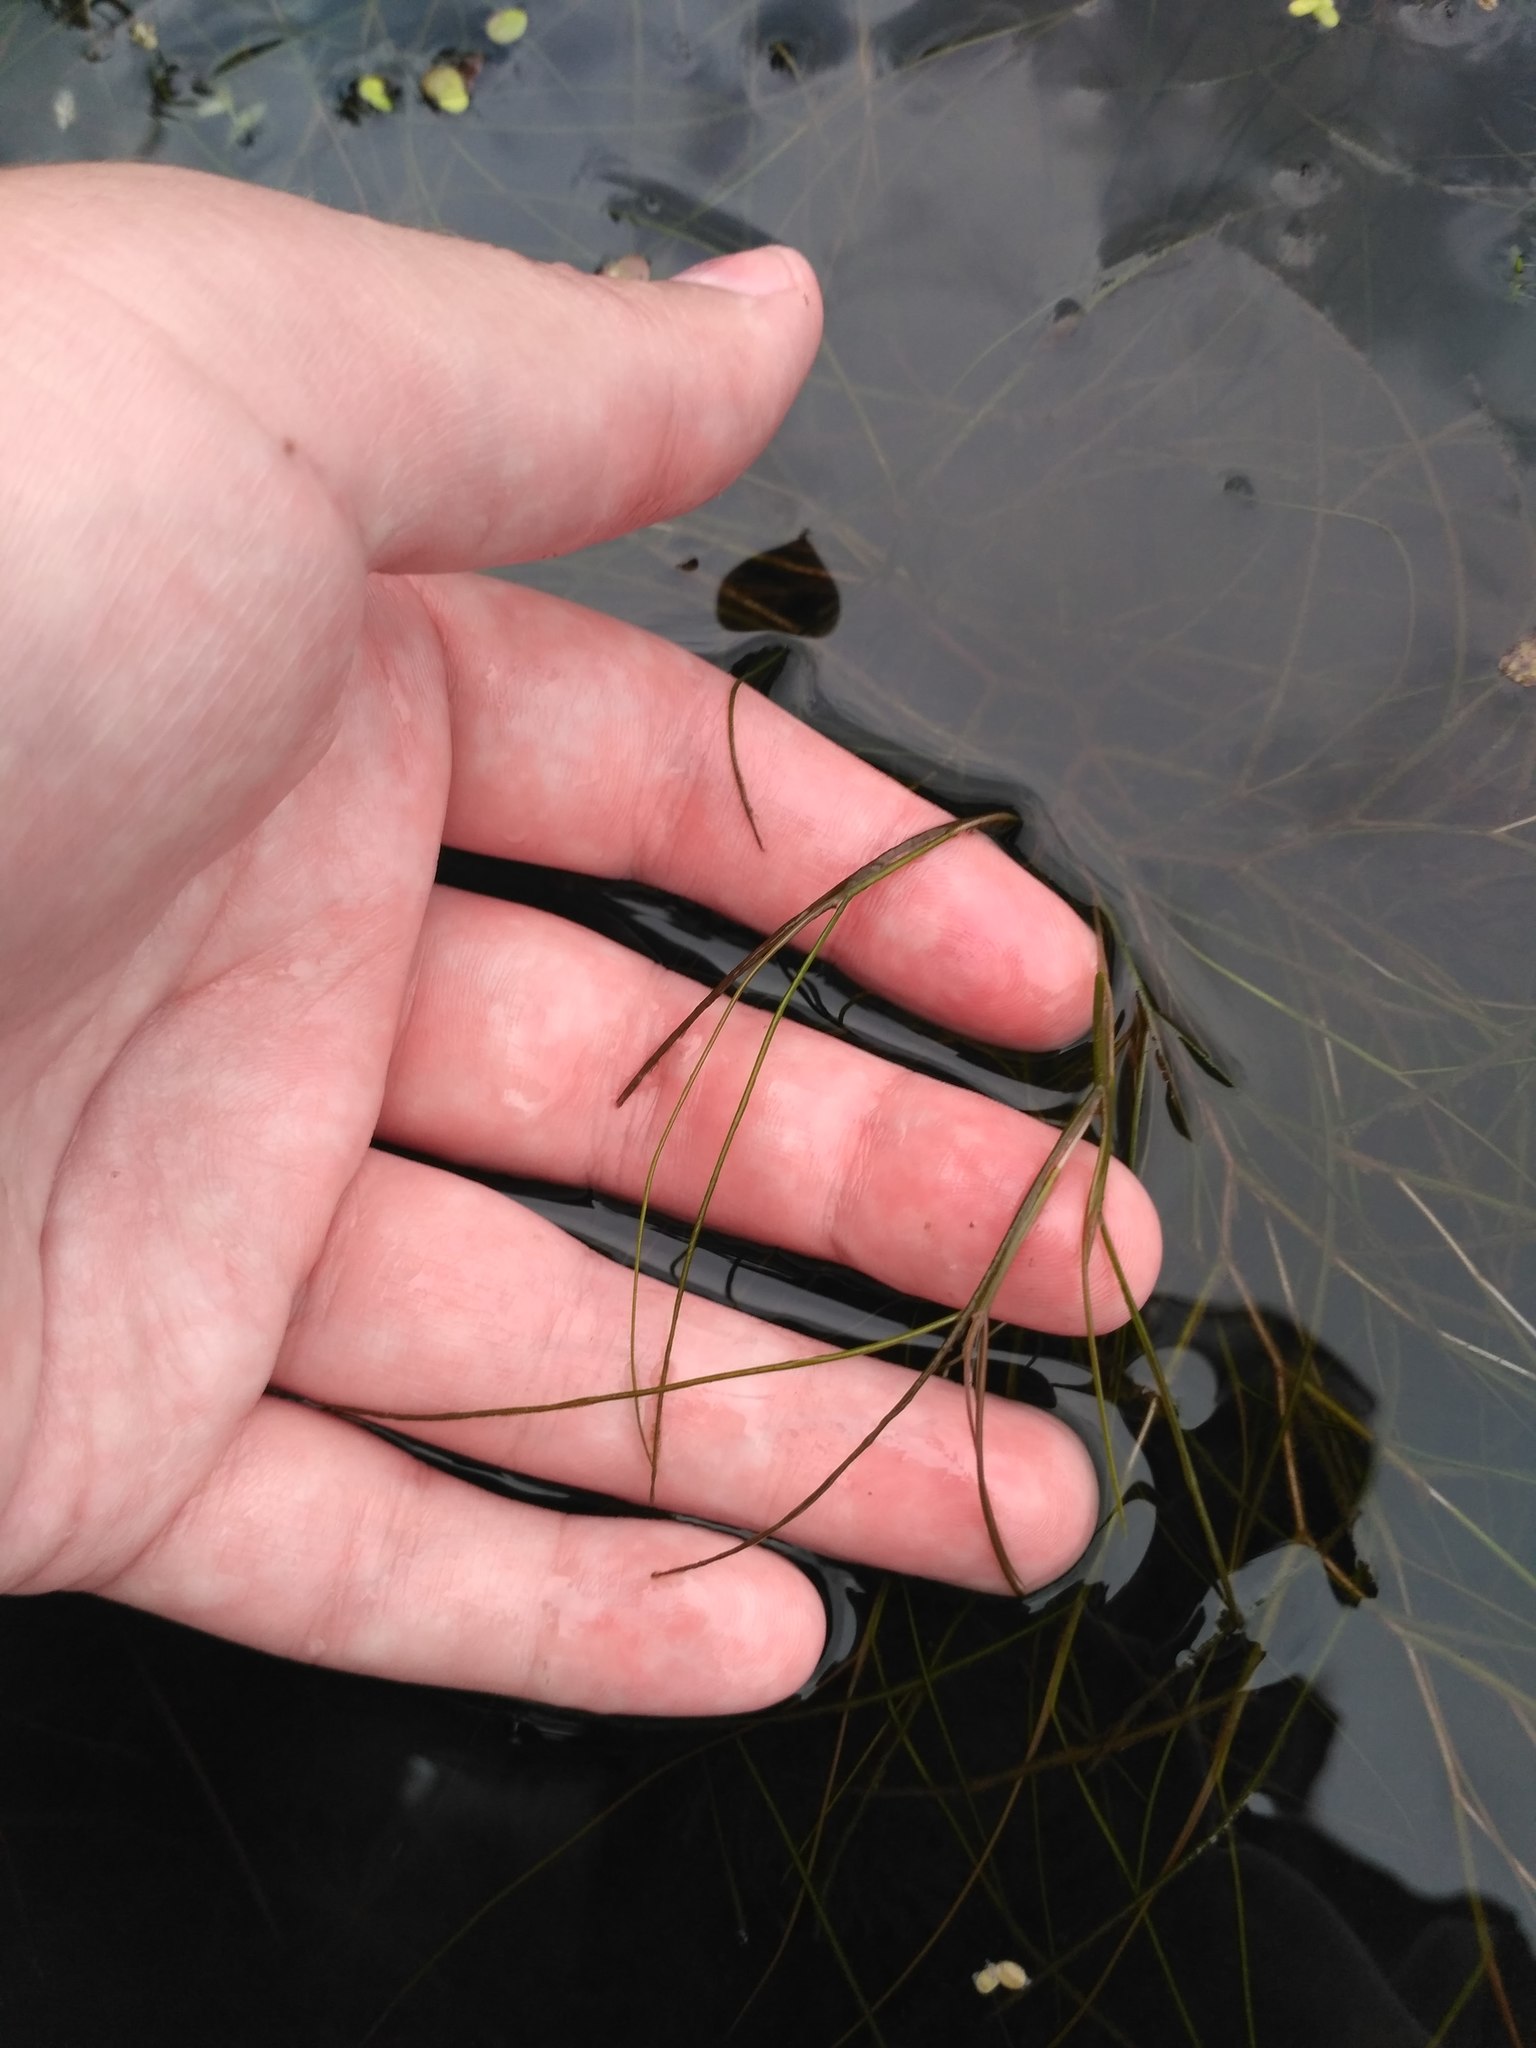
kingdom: Plantae
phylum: Tracheophyta
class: Liliopsida
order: Alismatales
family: Potamogetonaceae
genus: Stuckenia
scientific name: Stuckenia pectinata
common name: Sago pondweed
